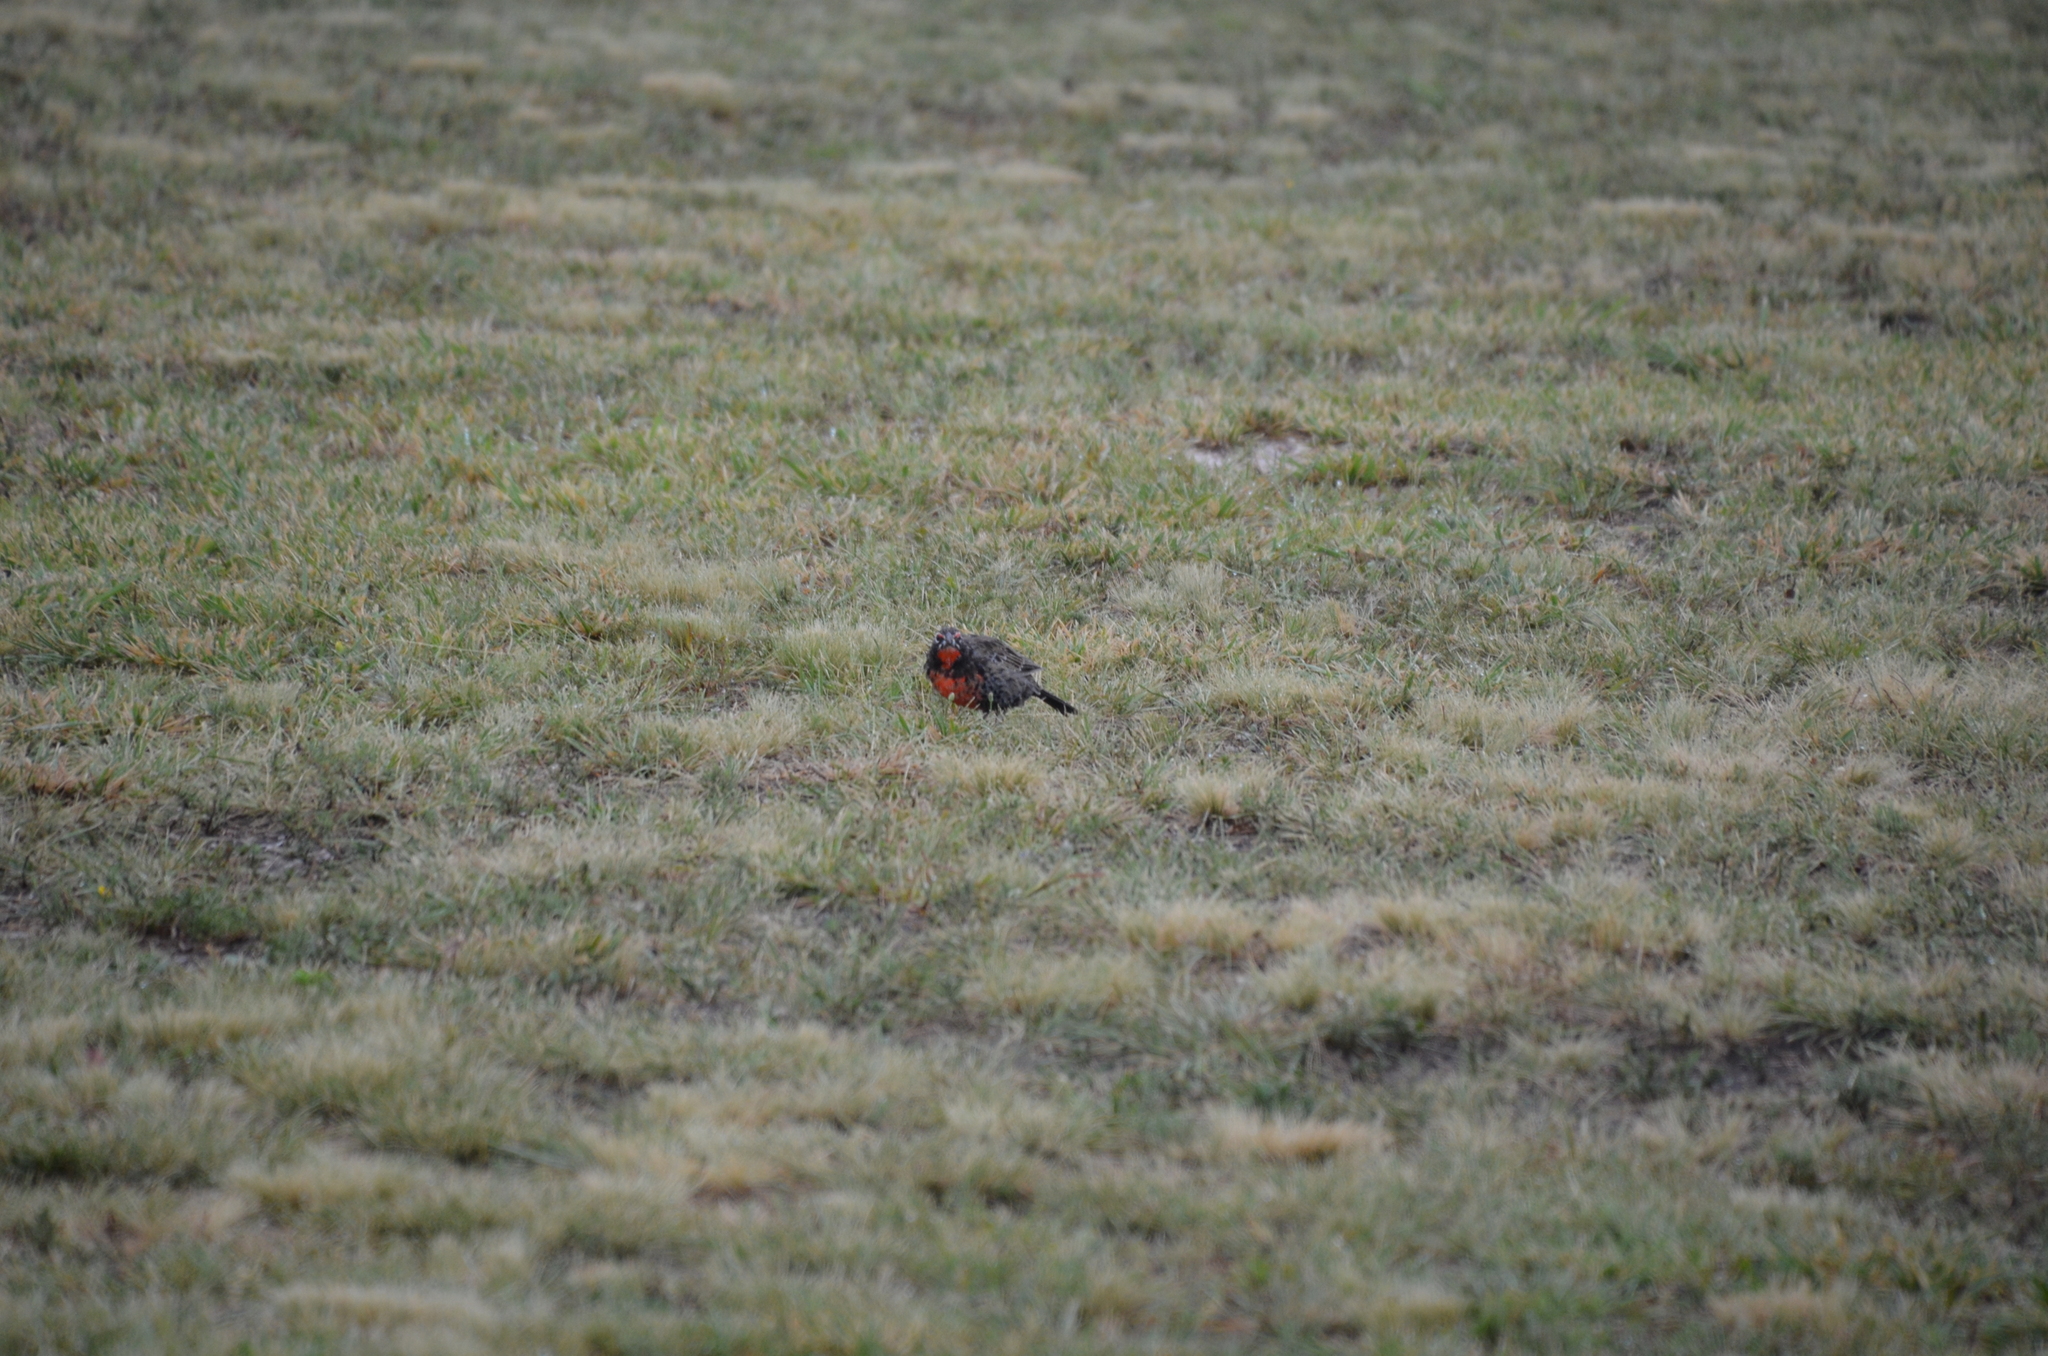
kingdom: Animalia
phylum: Chordata
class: Aves
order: Passeriformes
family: Icteridae
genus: Sturnella
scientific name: Sturnella loyca
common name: Long-tailed meadowlark
